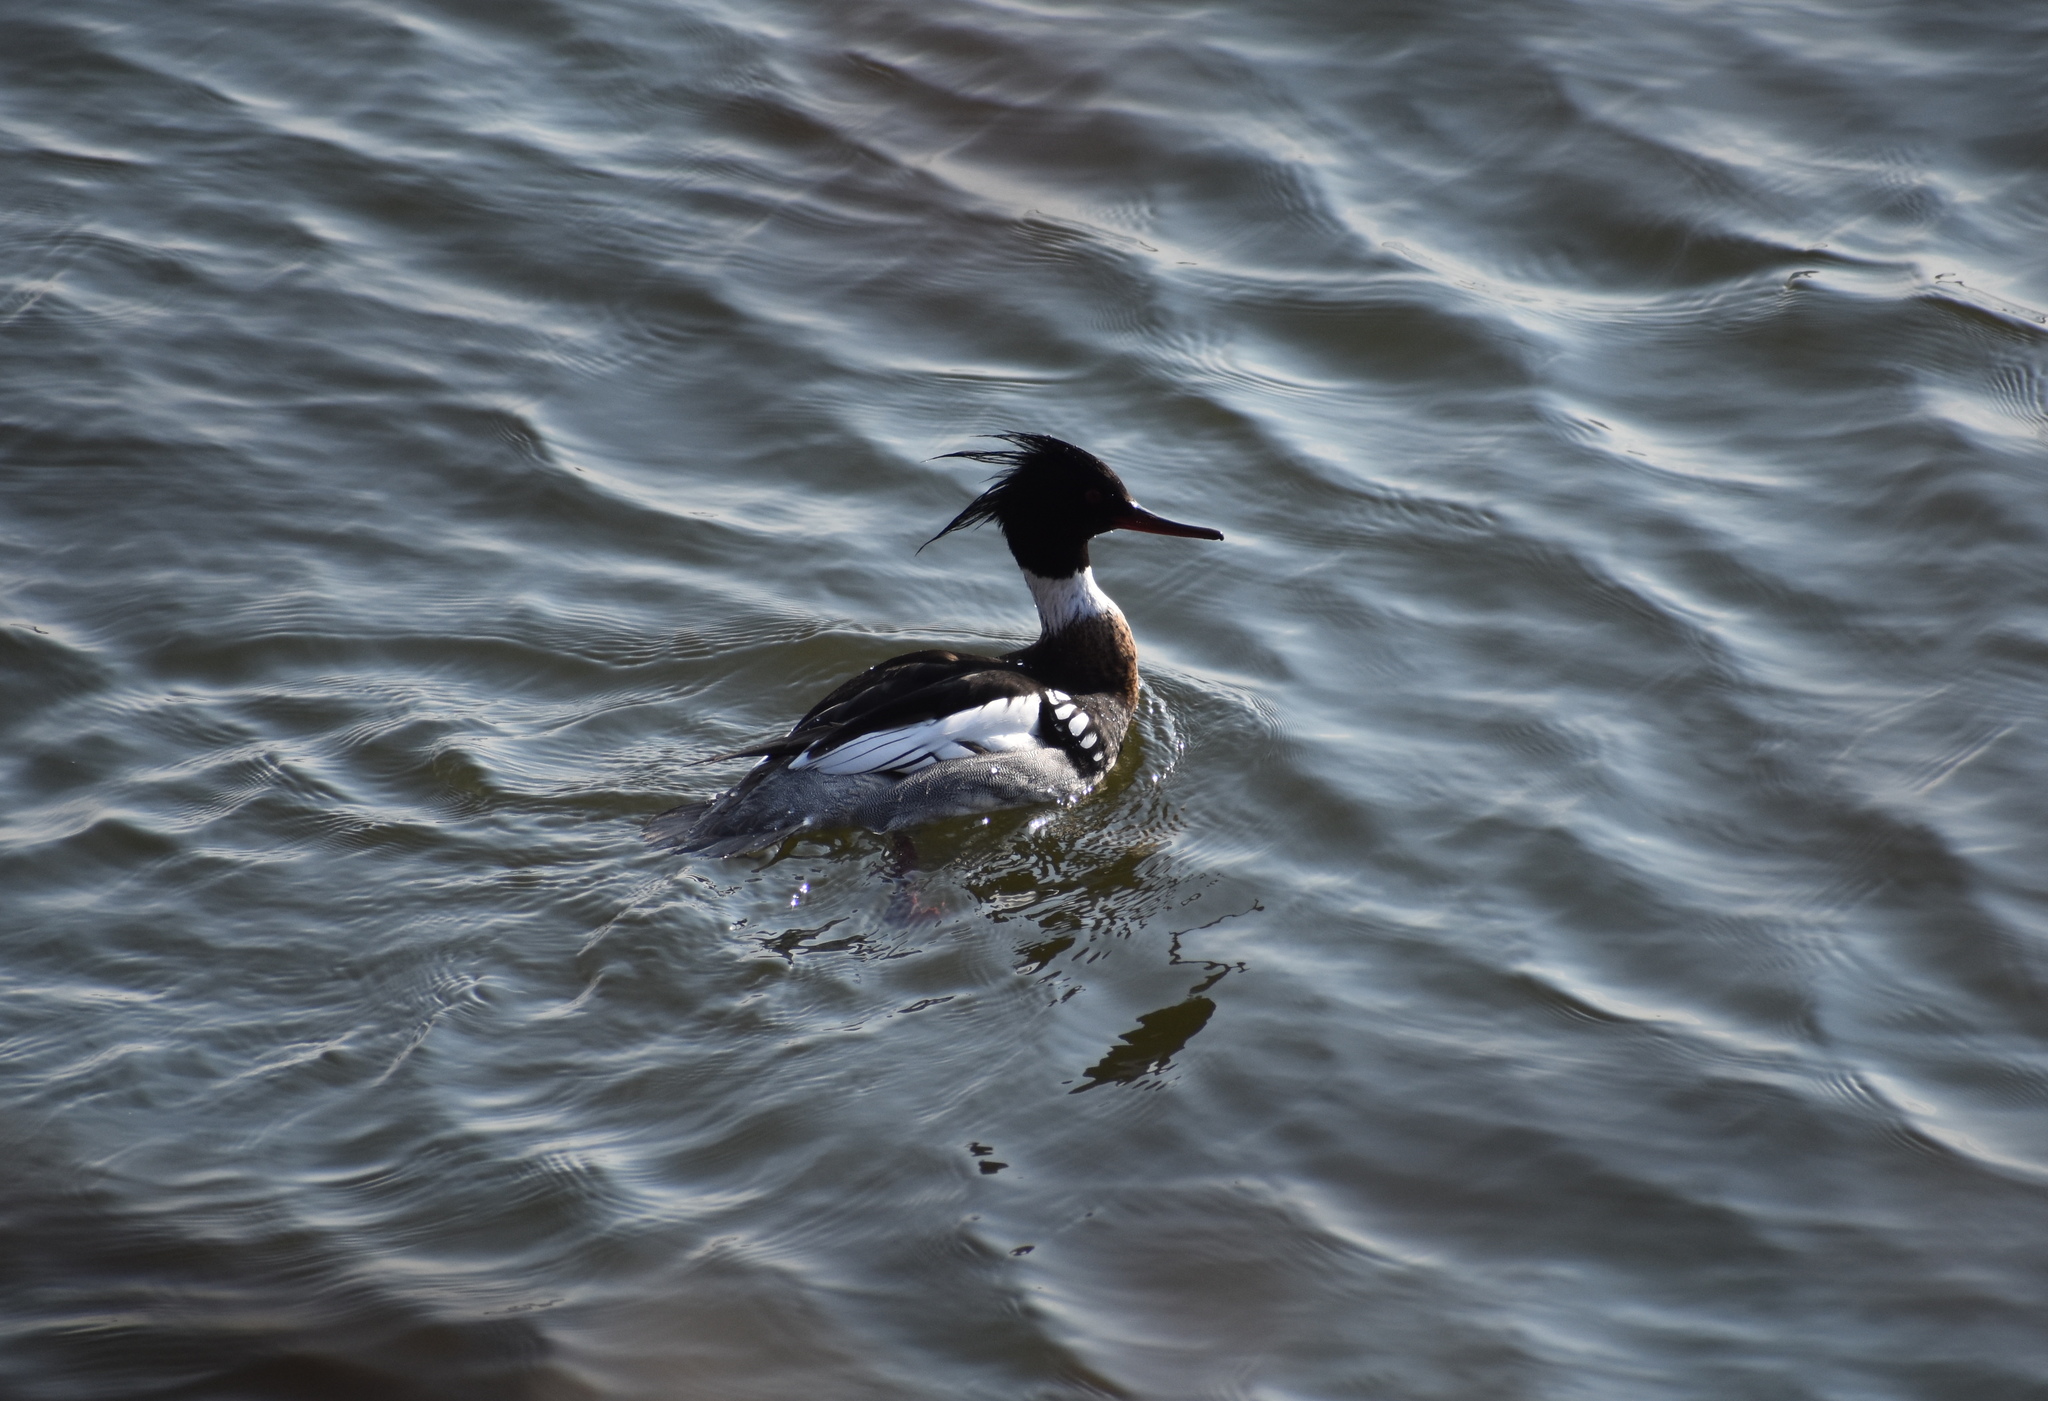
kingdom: Animalia
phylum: Chordata
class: Aves
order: Anseriformes
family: Anatidae
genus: Mergus
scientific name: Mergus serrator
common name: Red-breasted merganser
